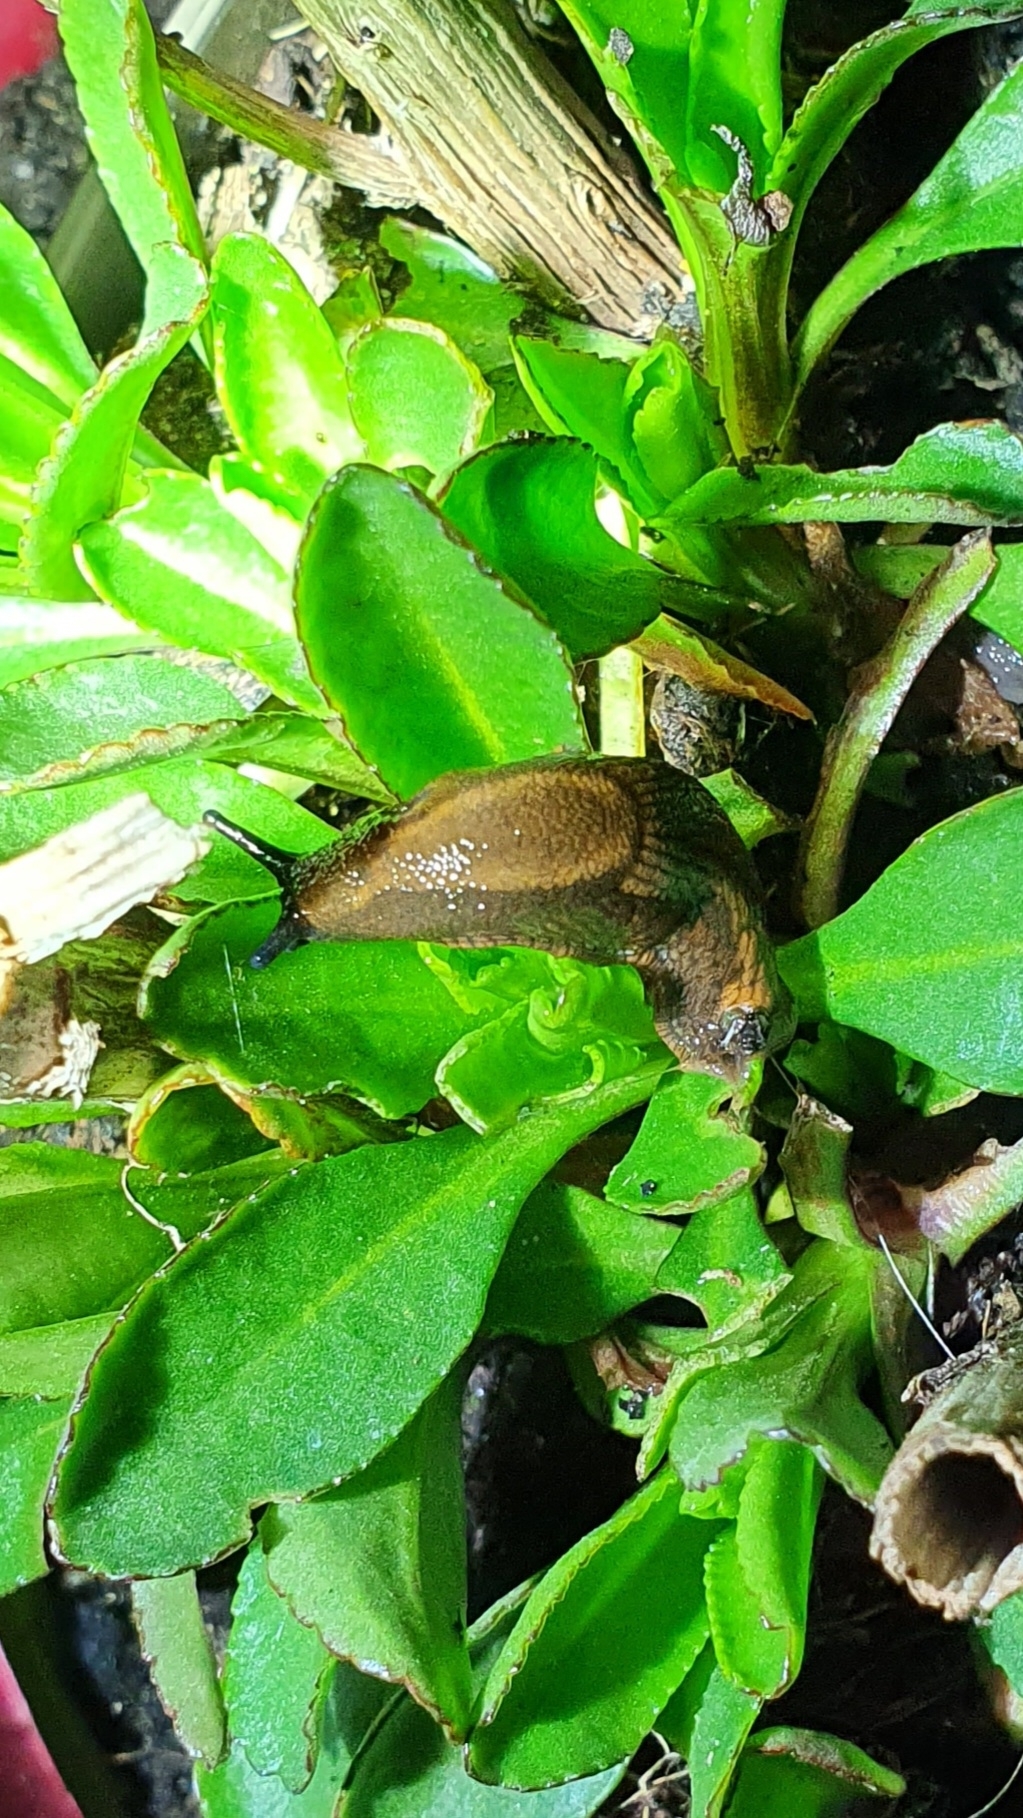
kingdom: Animalia
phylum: Mollusca
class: Gastropoda
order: Stylommatophora
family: Arionidae
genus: Arion
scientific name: Arion vulgaris
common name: Lusitanian slug
